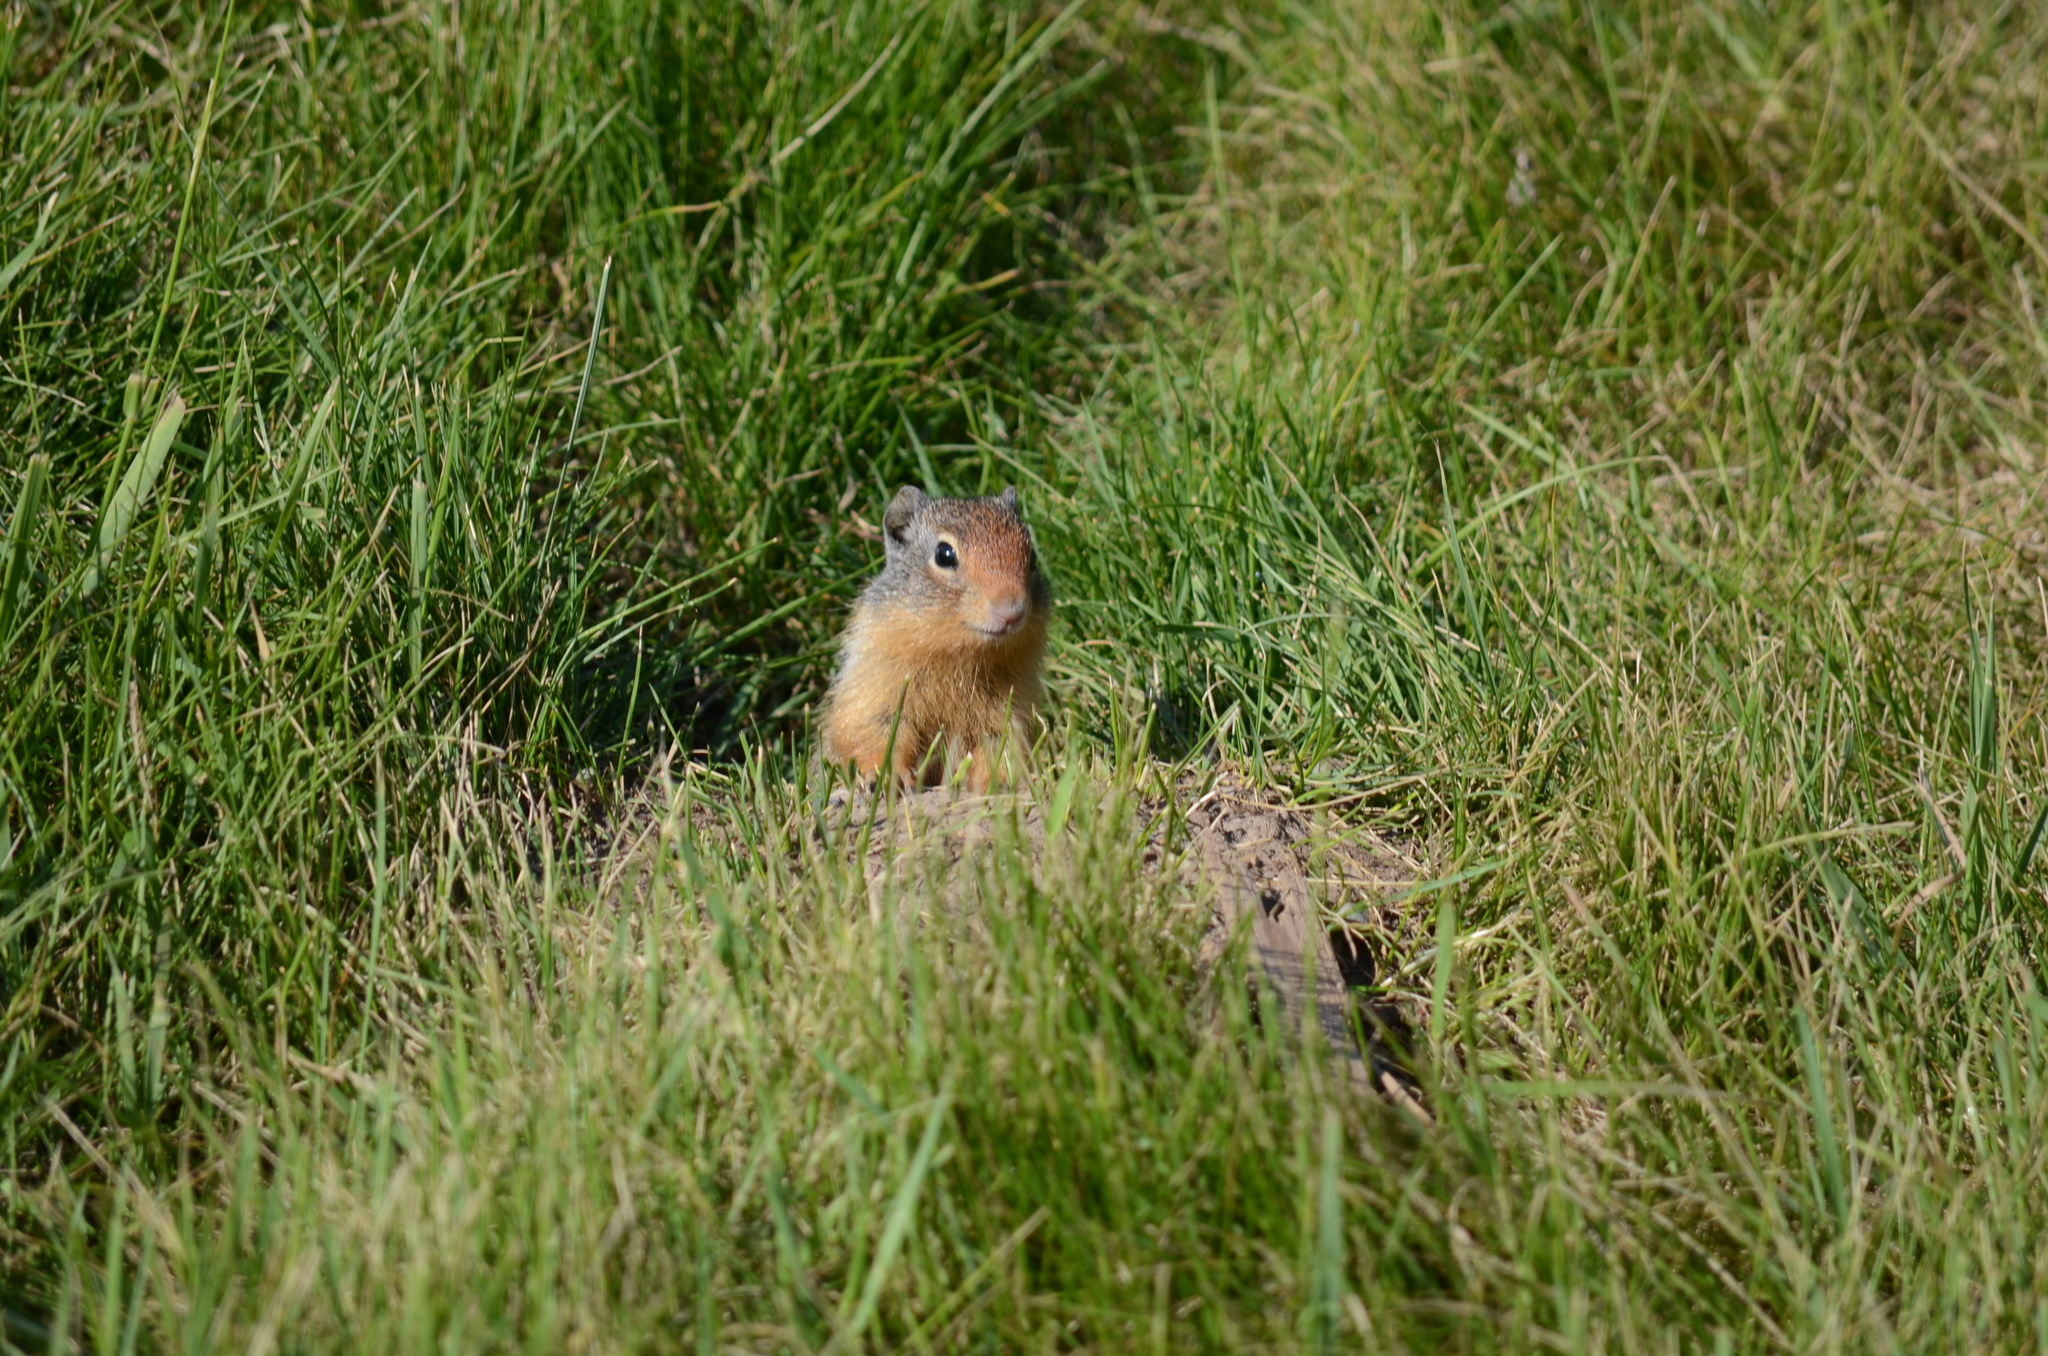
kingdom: Animalia
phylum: Chordata
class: Mammalia
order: Rodentia
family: Sciuridae
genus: Urocitellus
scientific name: Urocitellus columbianus
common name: Columbian ground squirrel
